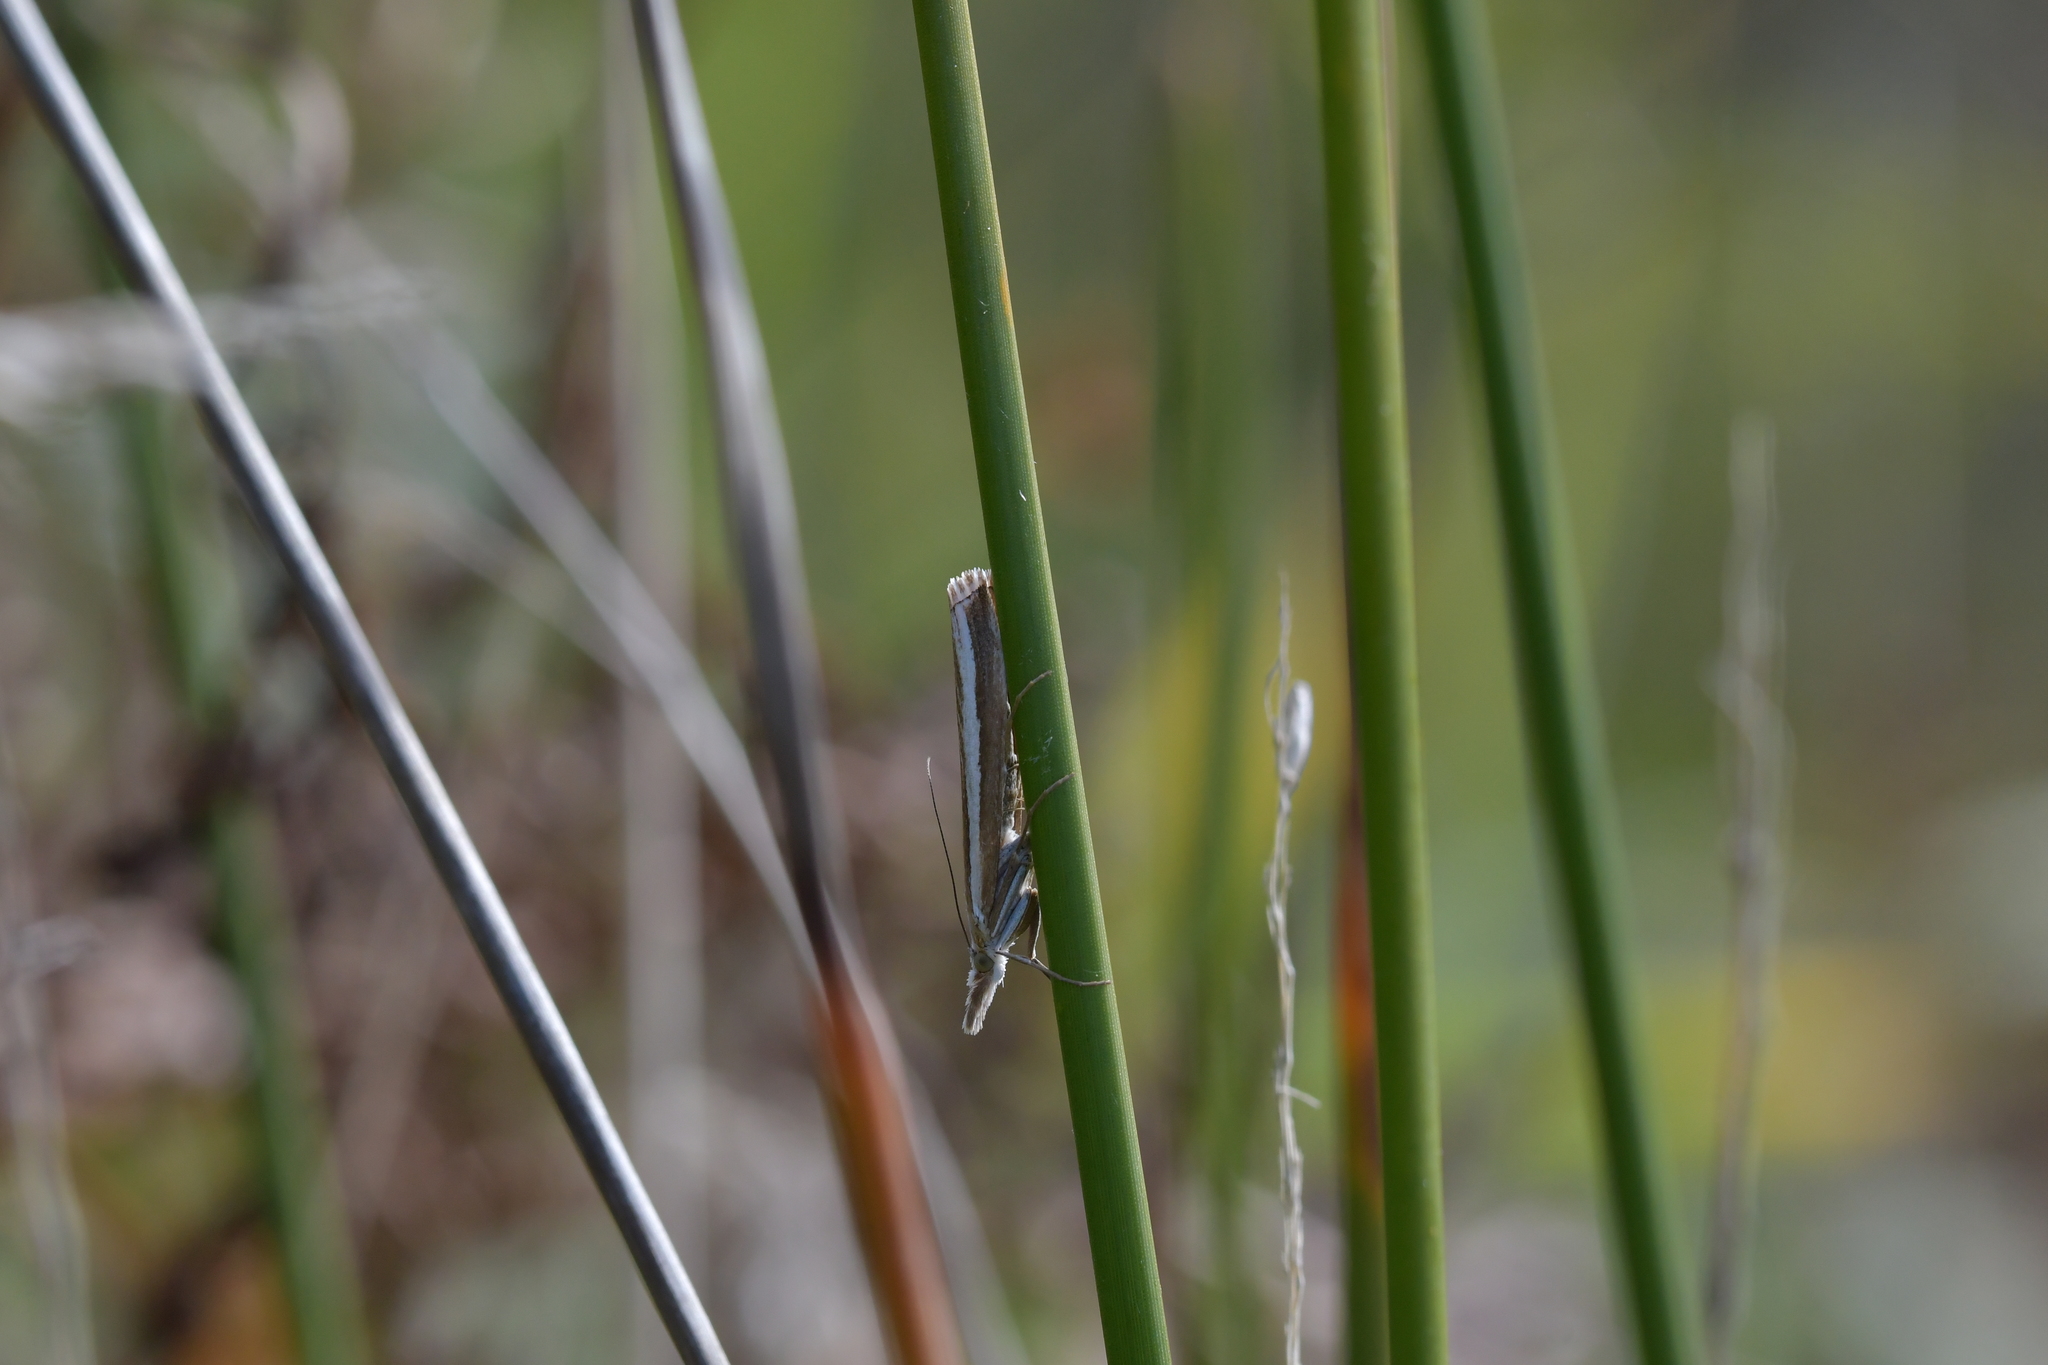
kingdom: Animalia
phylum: Arthropoda
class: Insecta
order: Lepidoptera
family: Crambidae
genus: Orocrambus
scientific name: Orocrambus vittellus
